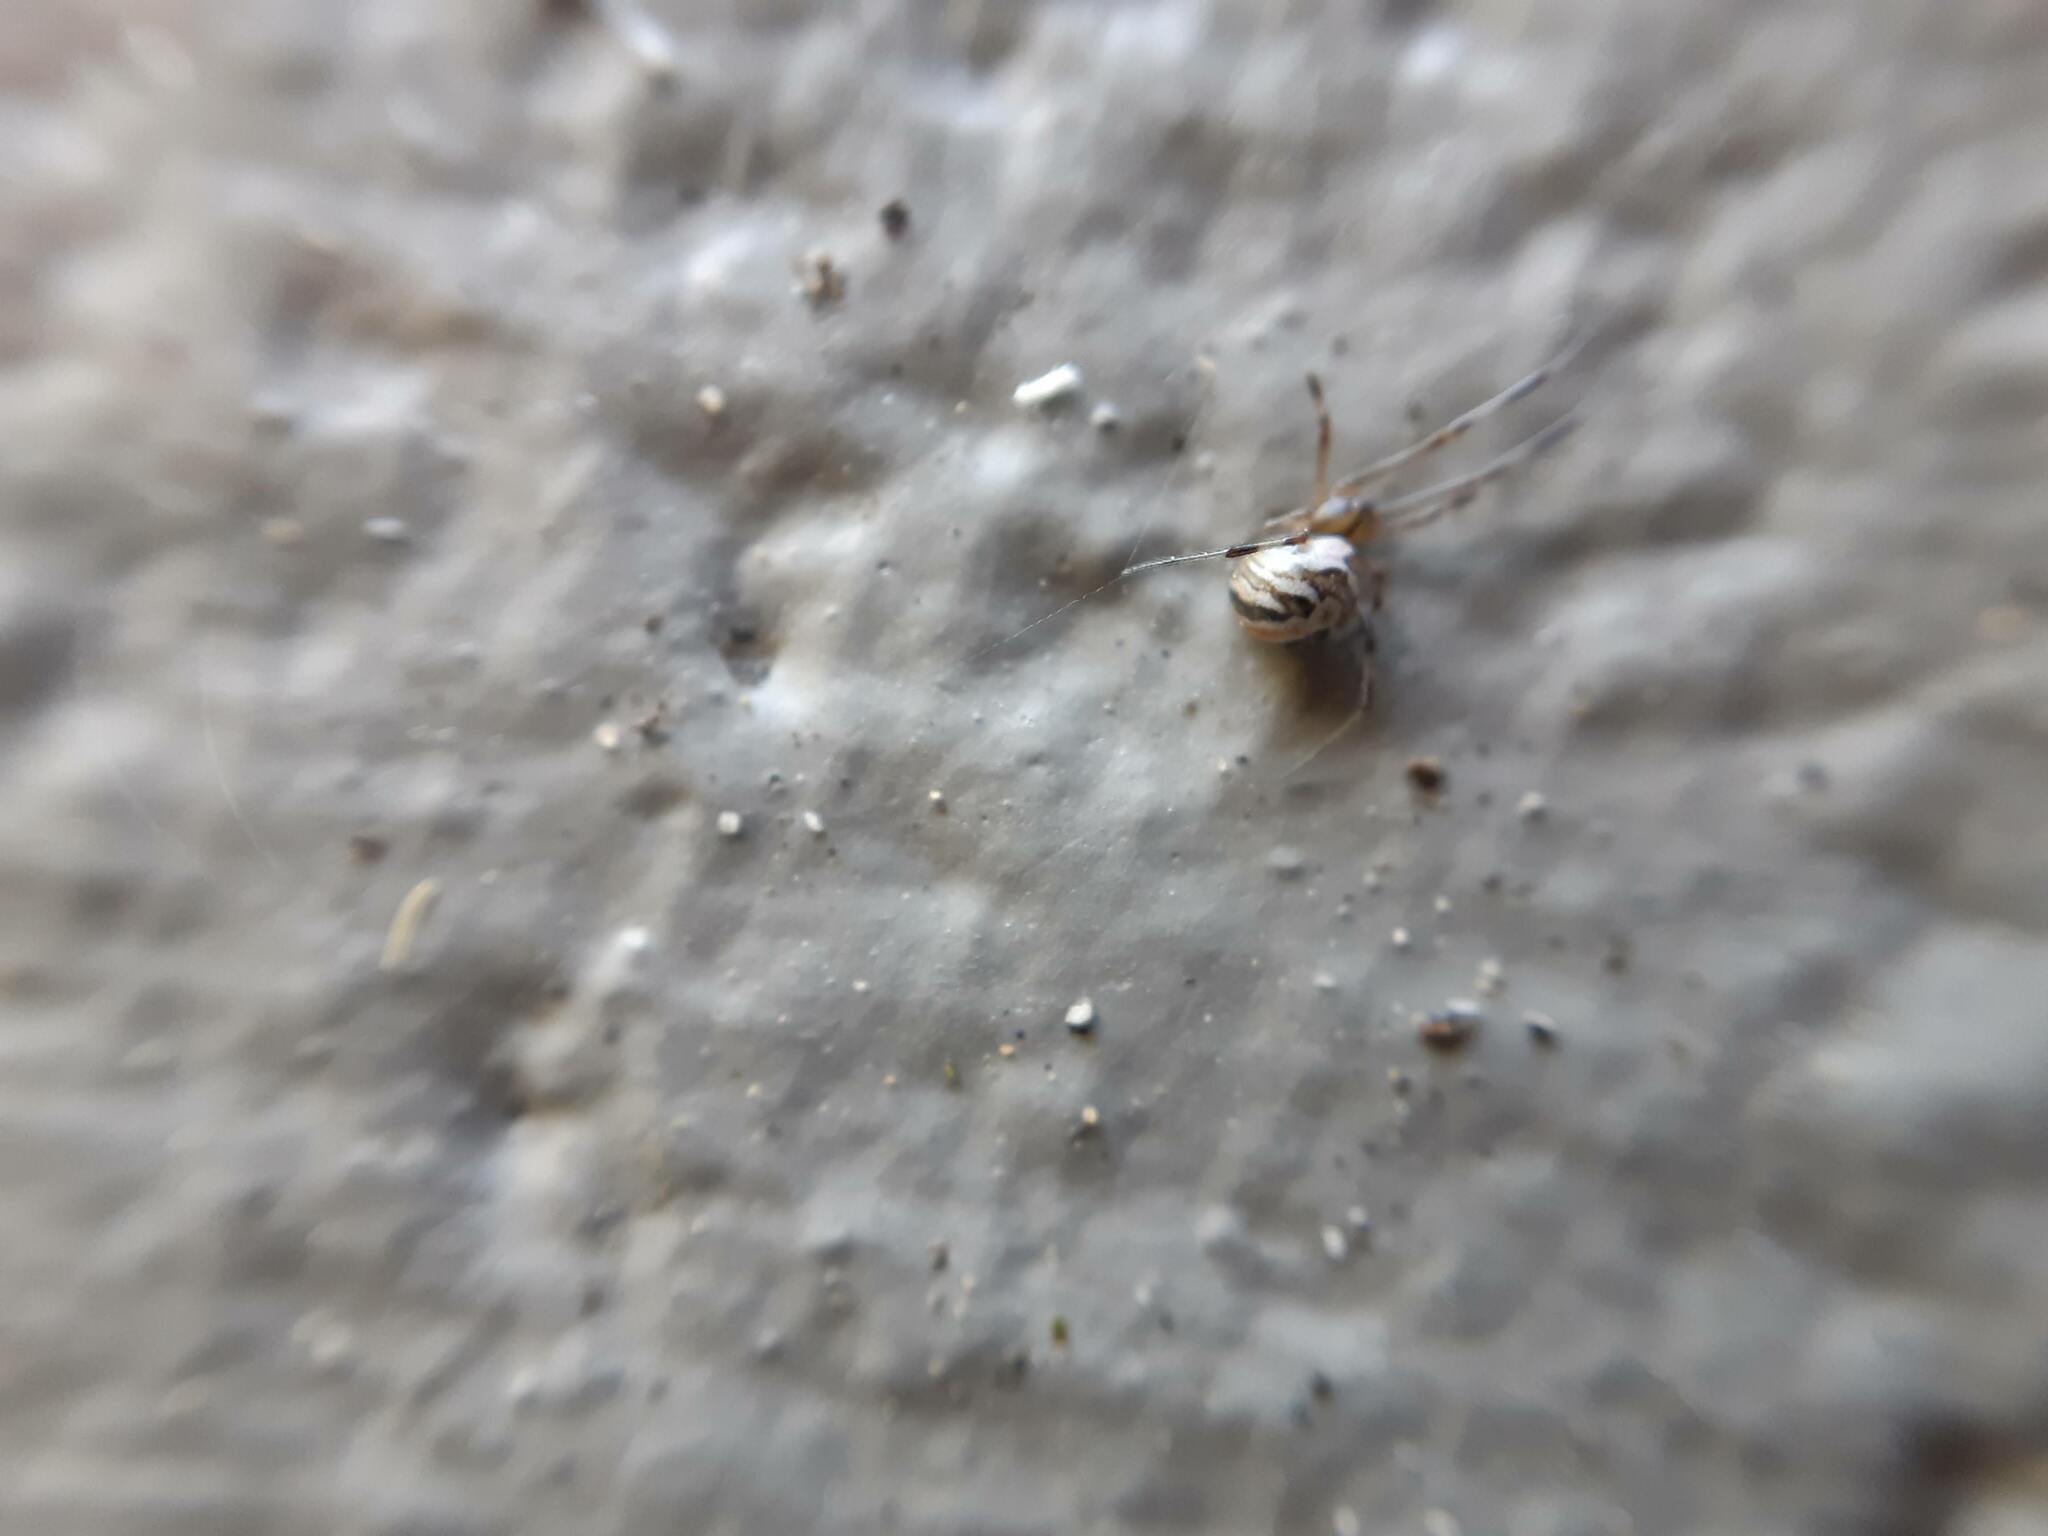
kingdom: Animalia
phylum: Arthropoda
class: Arachnida
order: Araneae
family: Theridiidae
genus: Latrodectus
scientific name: Latrodectus hasselti
